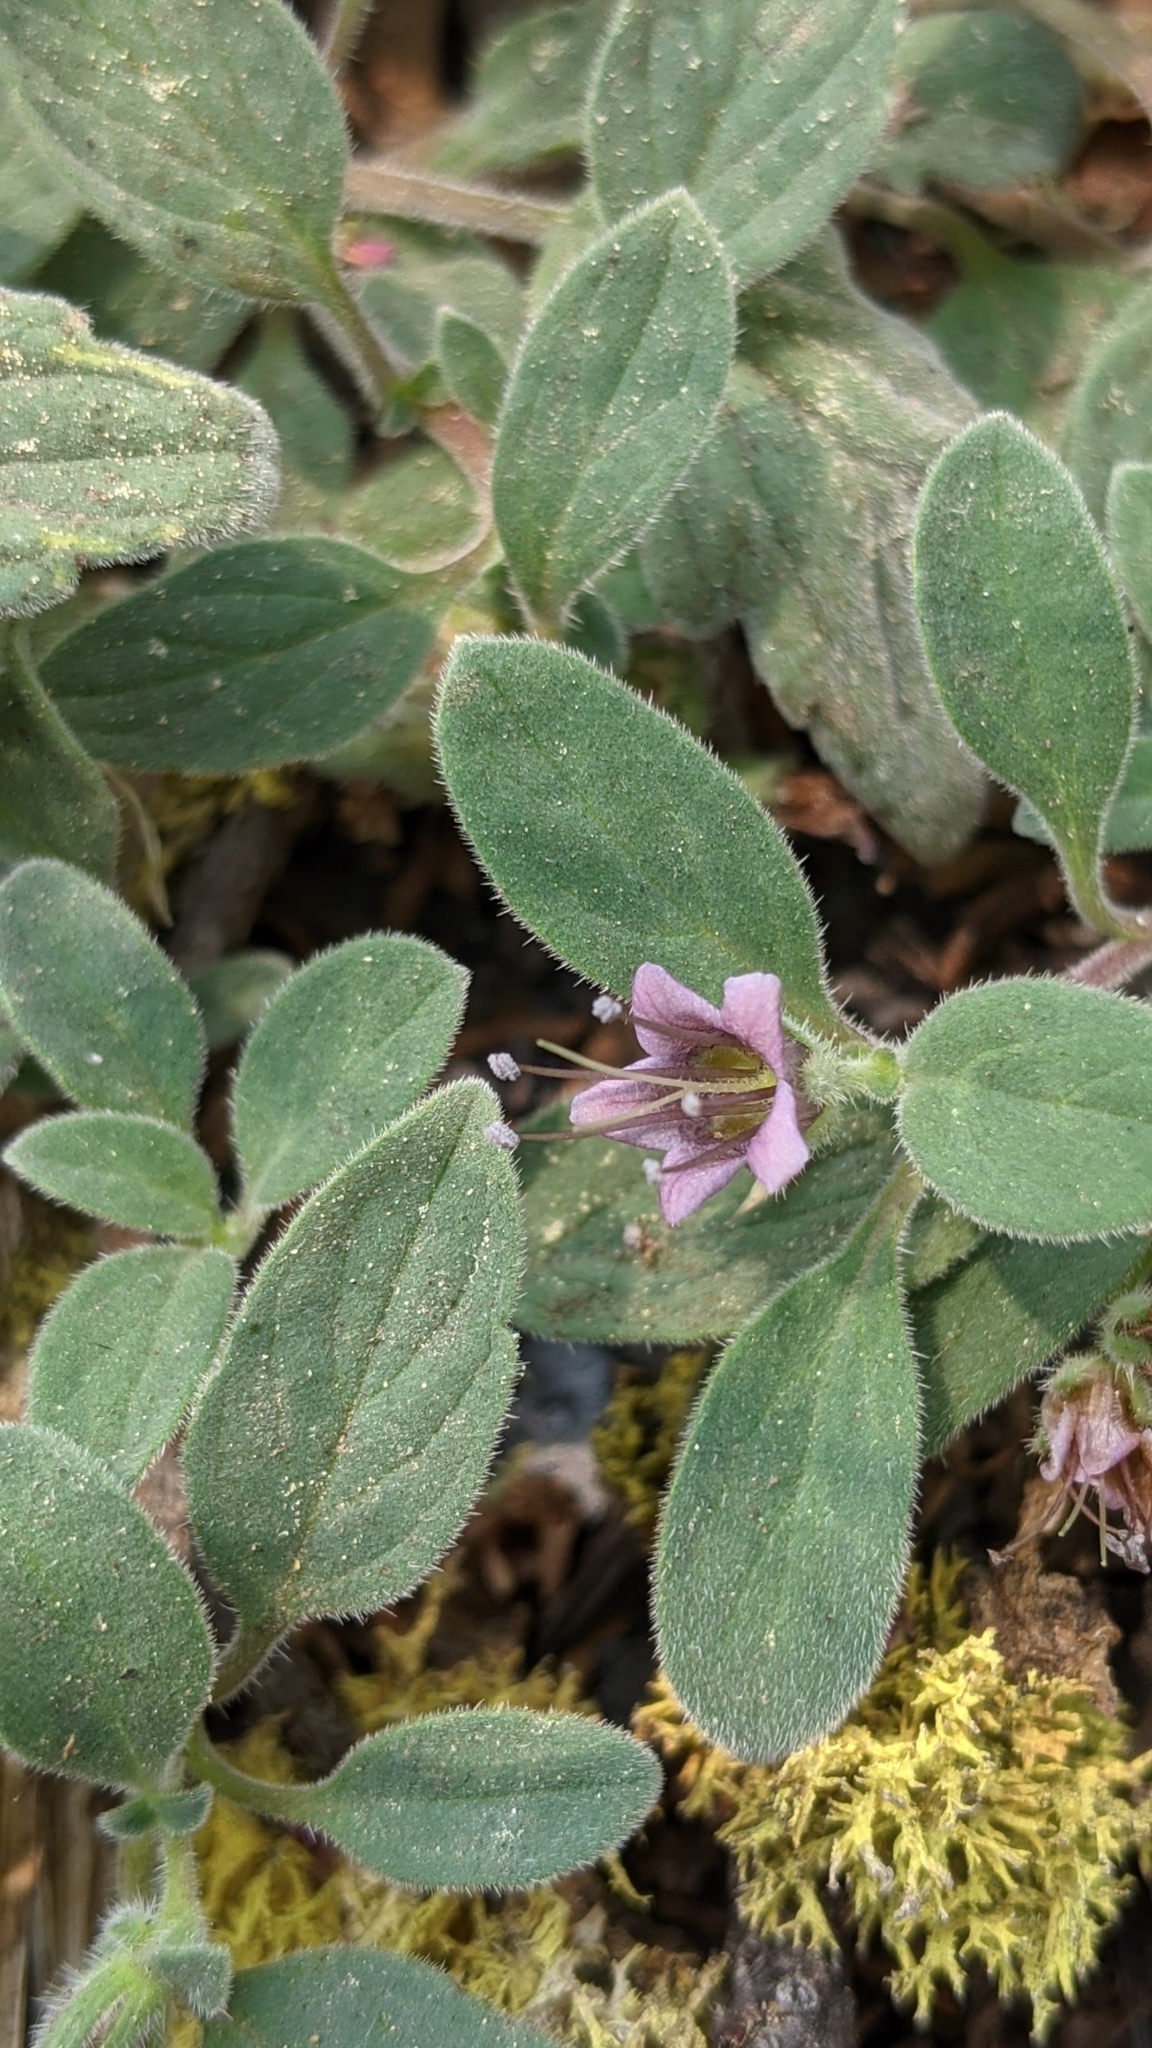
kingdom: Plantae
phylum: Tracheophyta
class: Magnoliopsida
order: Boraginales
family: Hydrophyllaceae
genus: Phacelia
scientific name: Phacelia hydrophylloides
